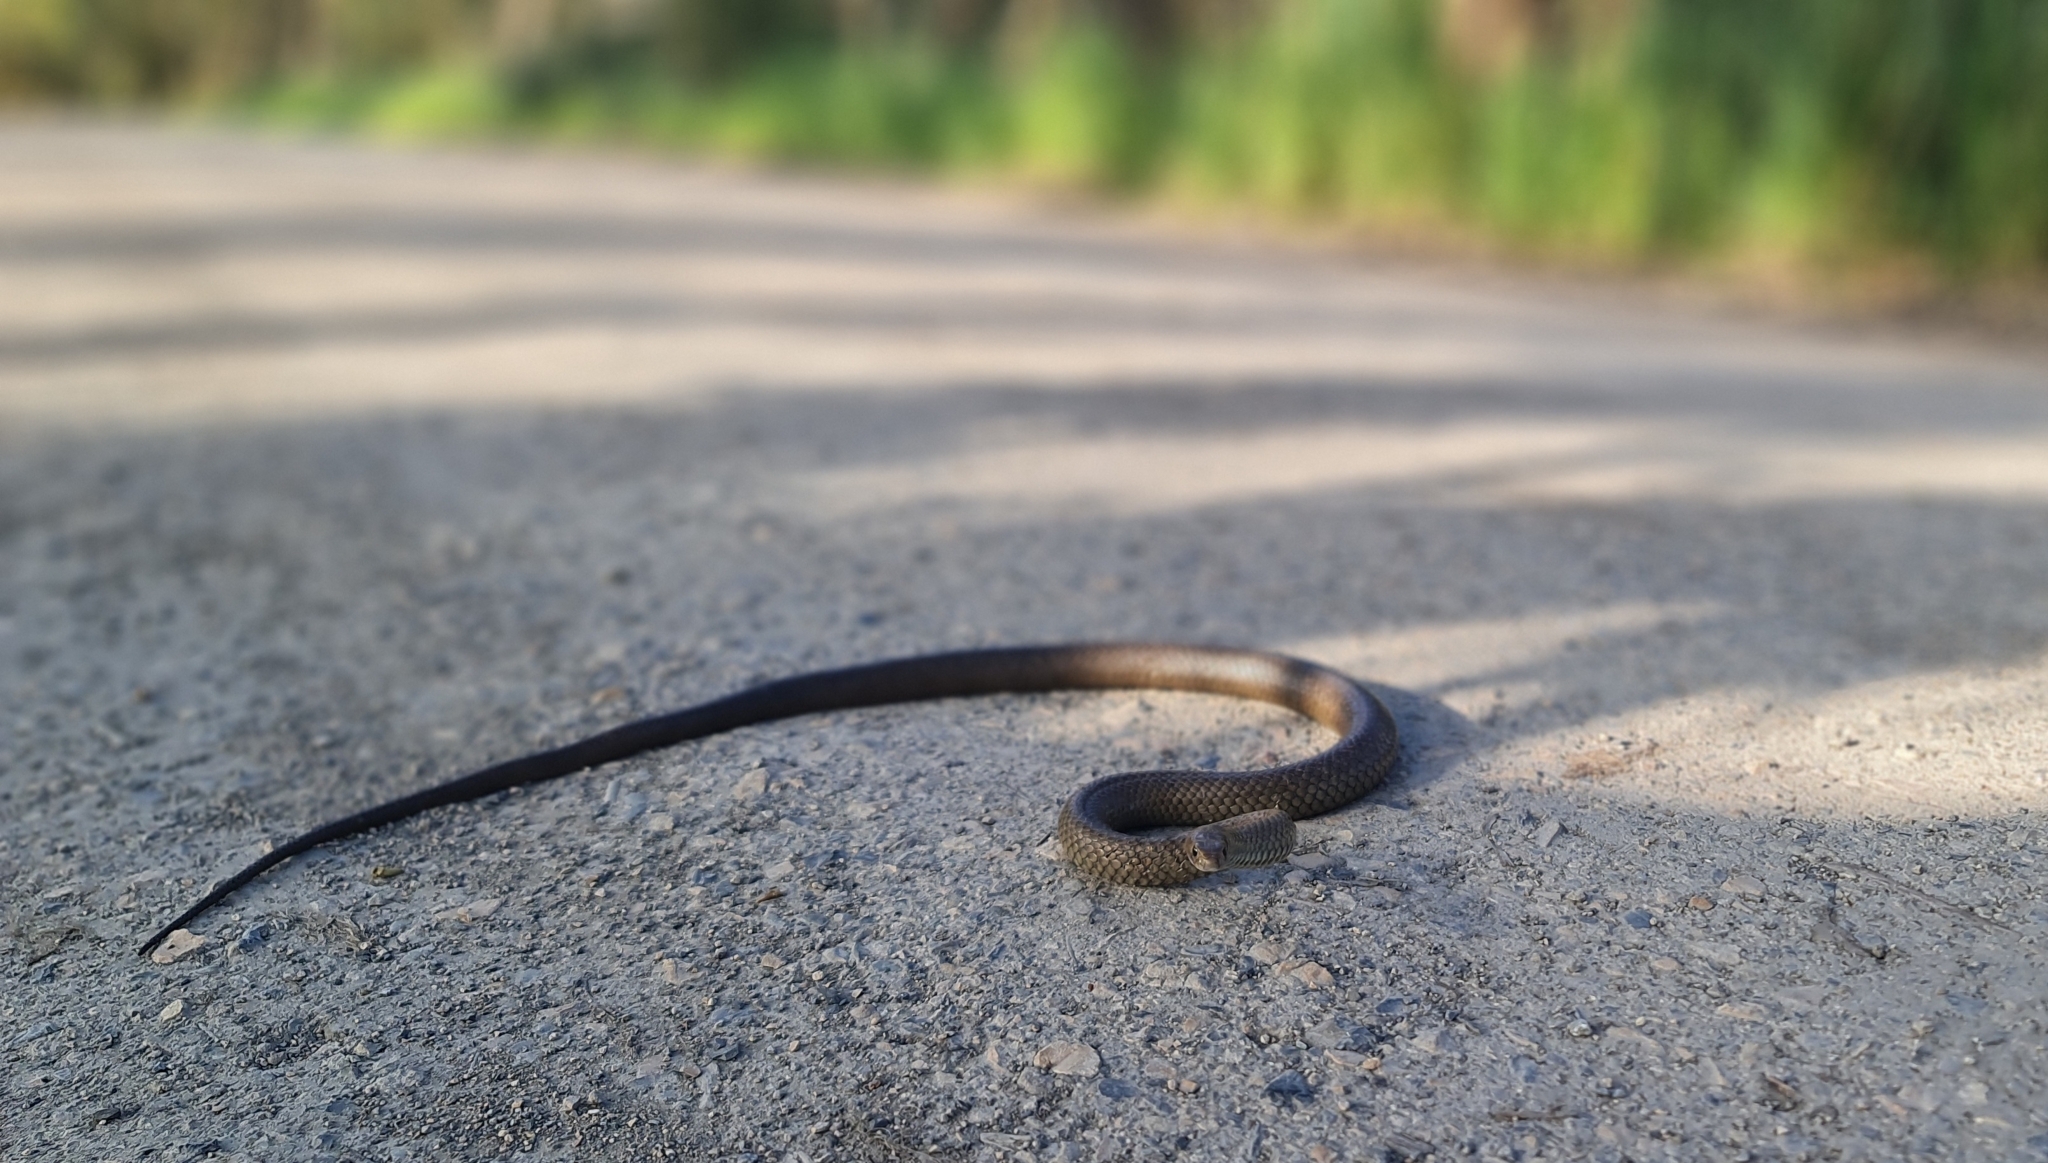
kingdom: Animalia
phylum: Chordata
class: Squamata
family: Elapidae
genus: Pseudonaja
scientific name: Pseudonaja textilis
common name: Eastern brown snake
